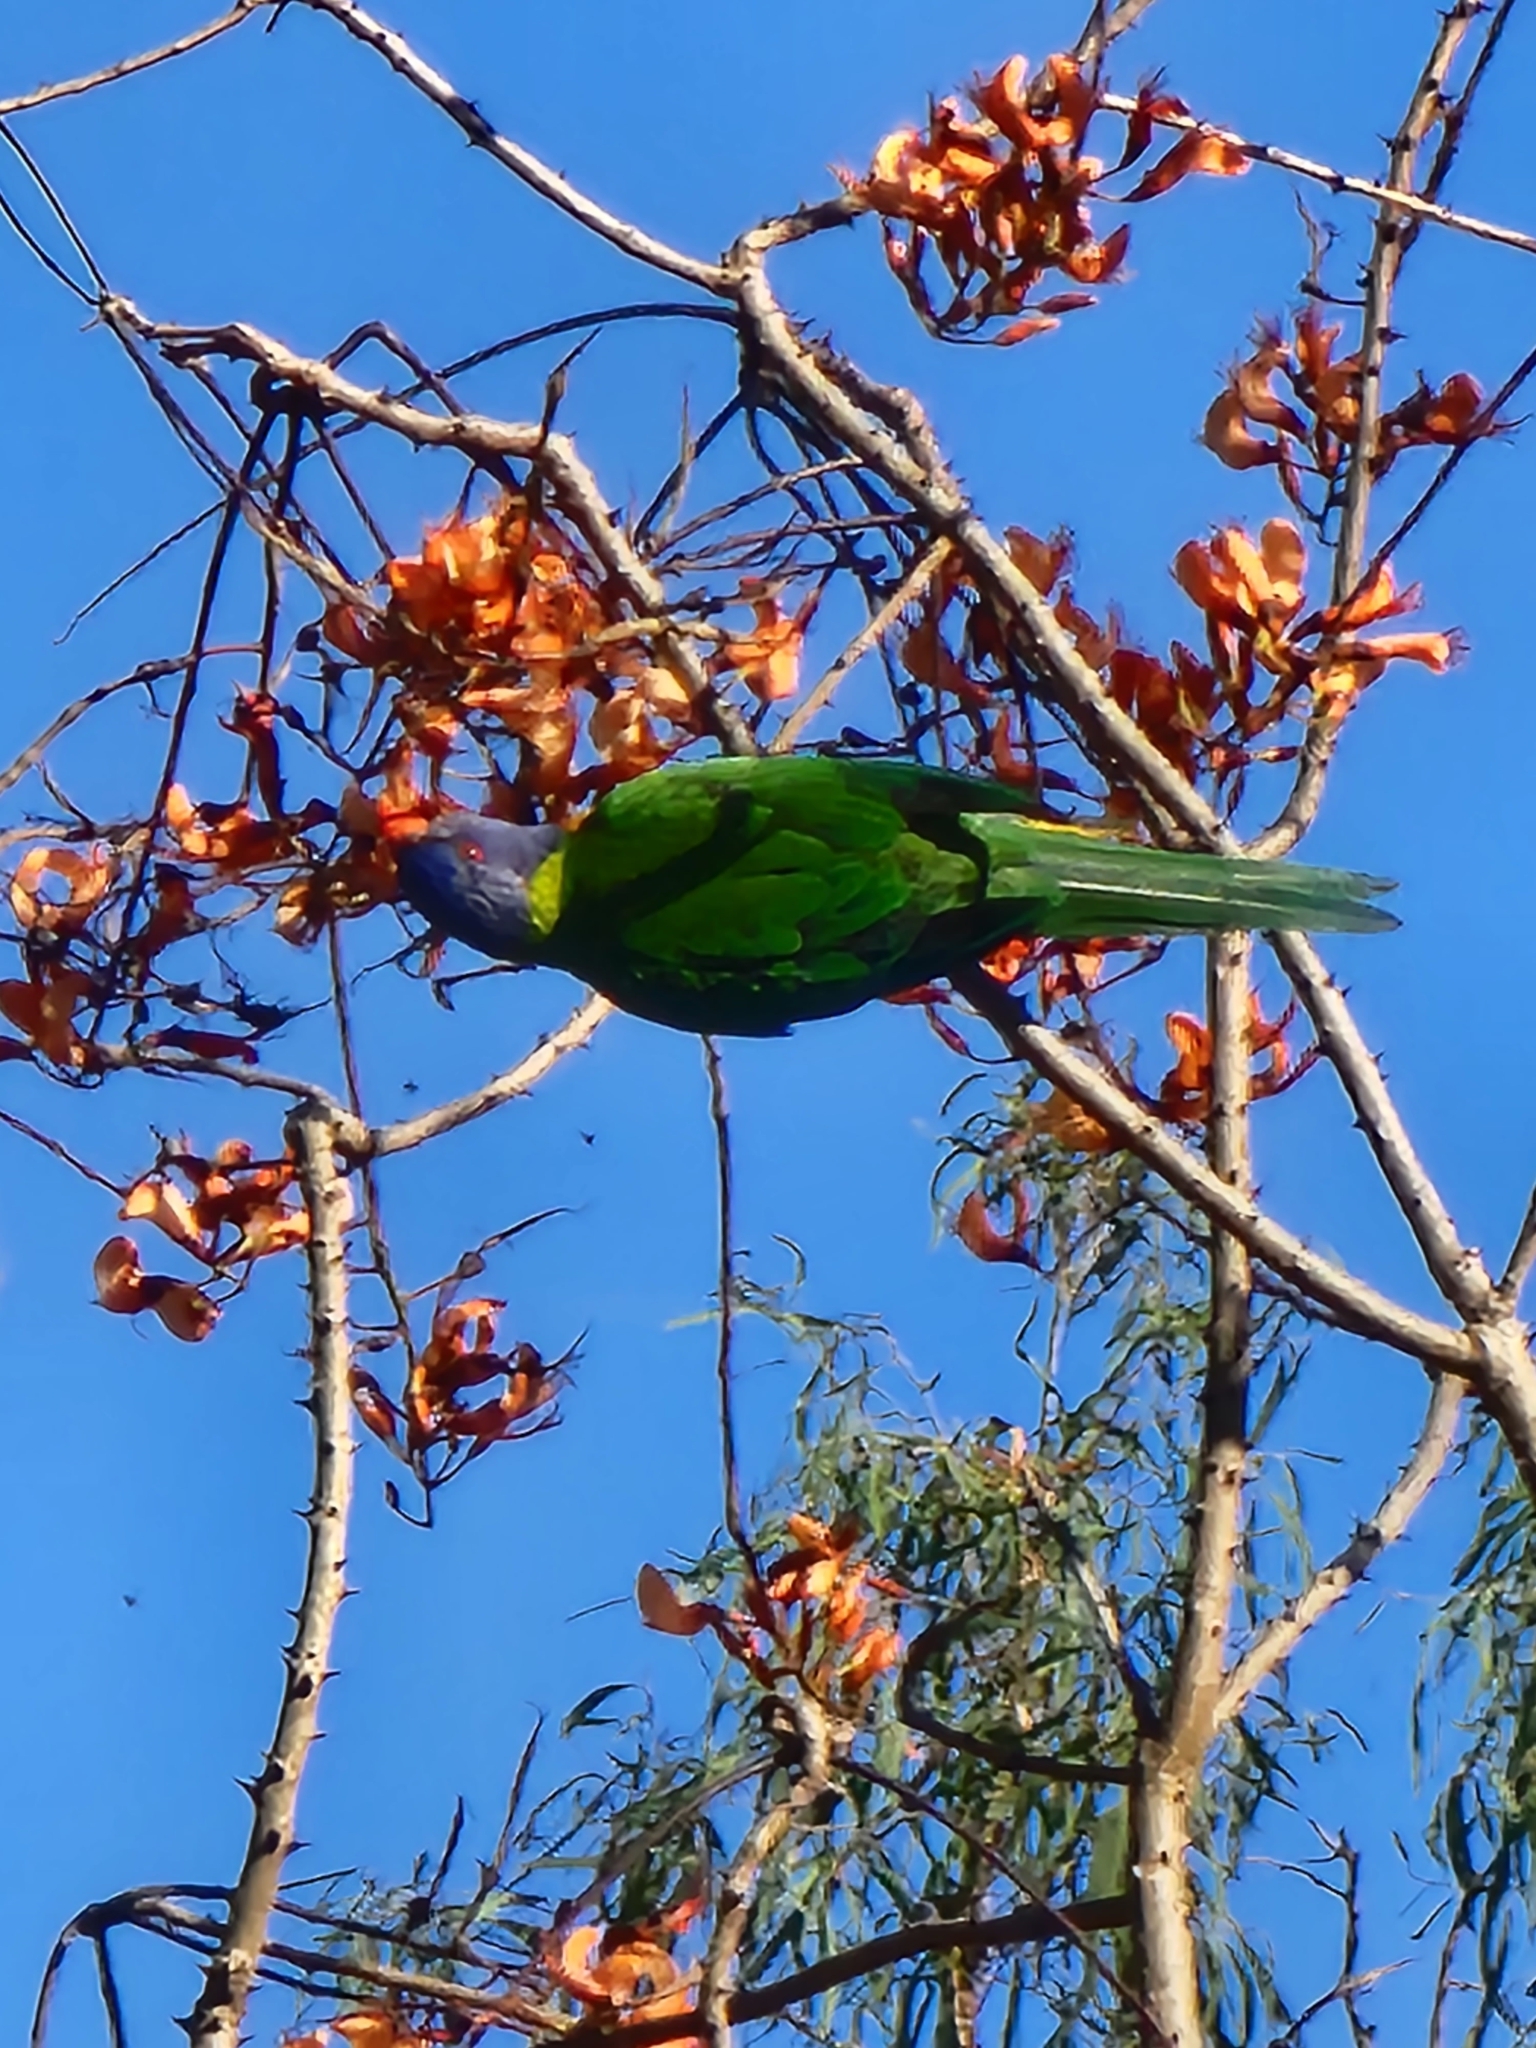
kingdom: Animalia
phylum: Chordata
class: Aves
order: Psittaciformes
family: Psittacidae
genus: Trichoglossus
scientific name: Trichoglossus haematodus
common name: Coconut lorikeet
